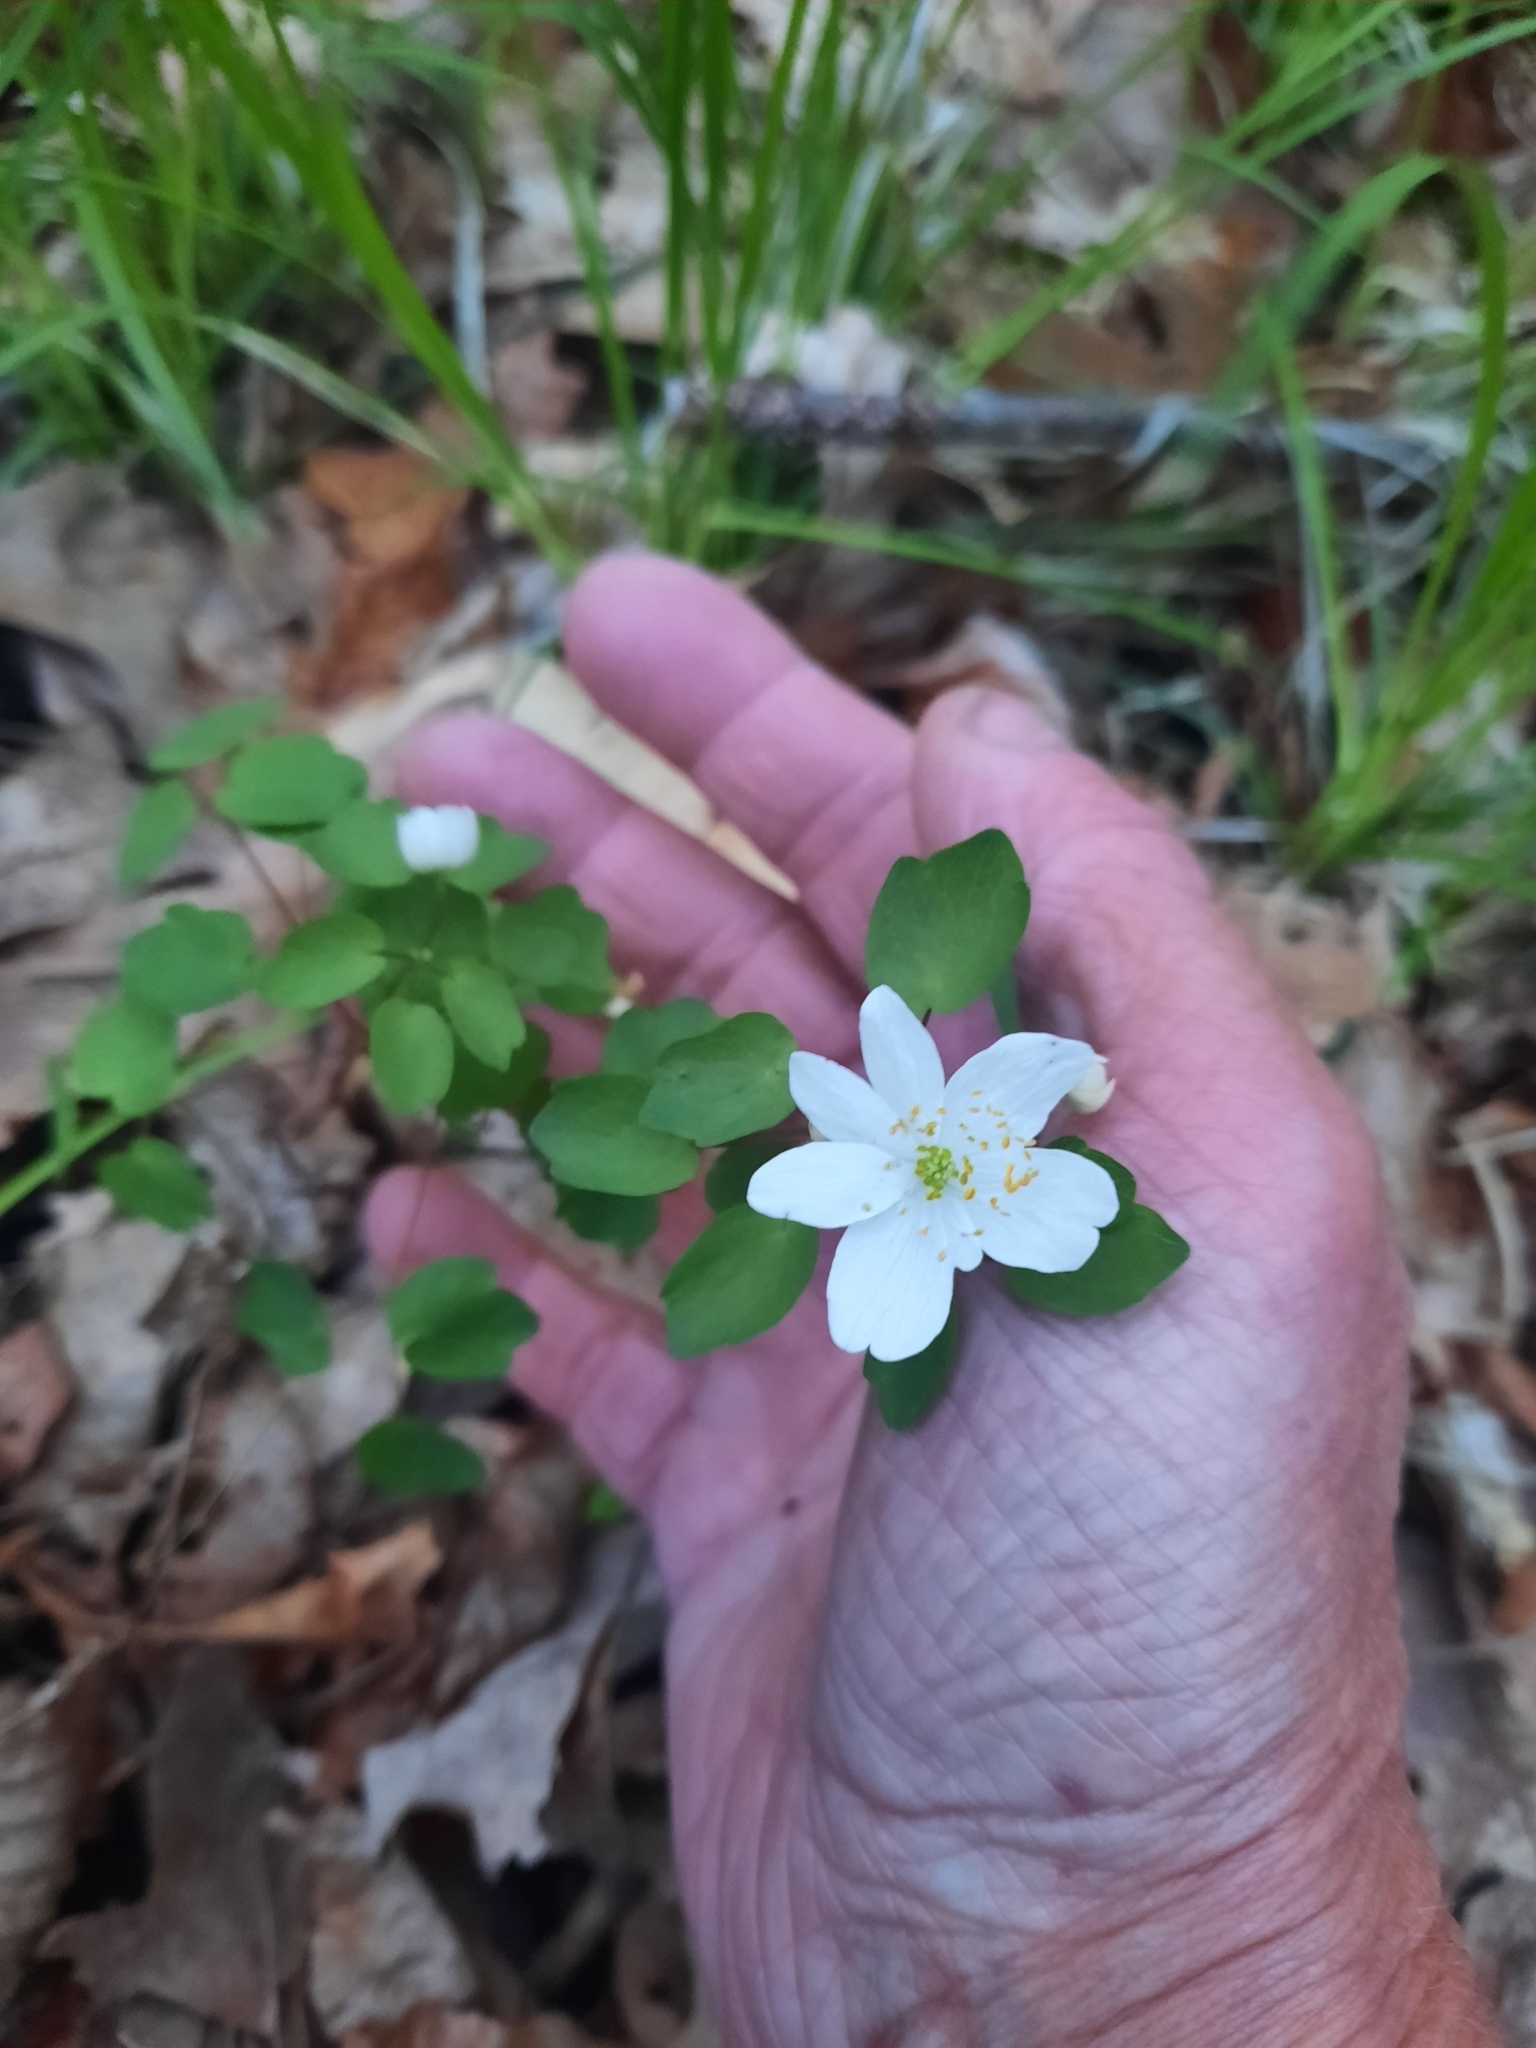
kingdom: Plantae
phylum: Tracheophyta
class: Magnoliopsida
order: Ranunculales
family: Ranunculaceae
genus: Thalictrum
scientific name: Thalictrum thalictroides
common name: Rue-anemone
